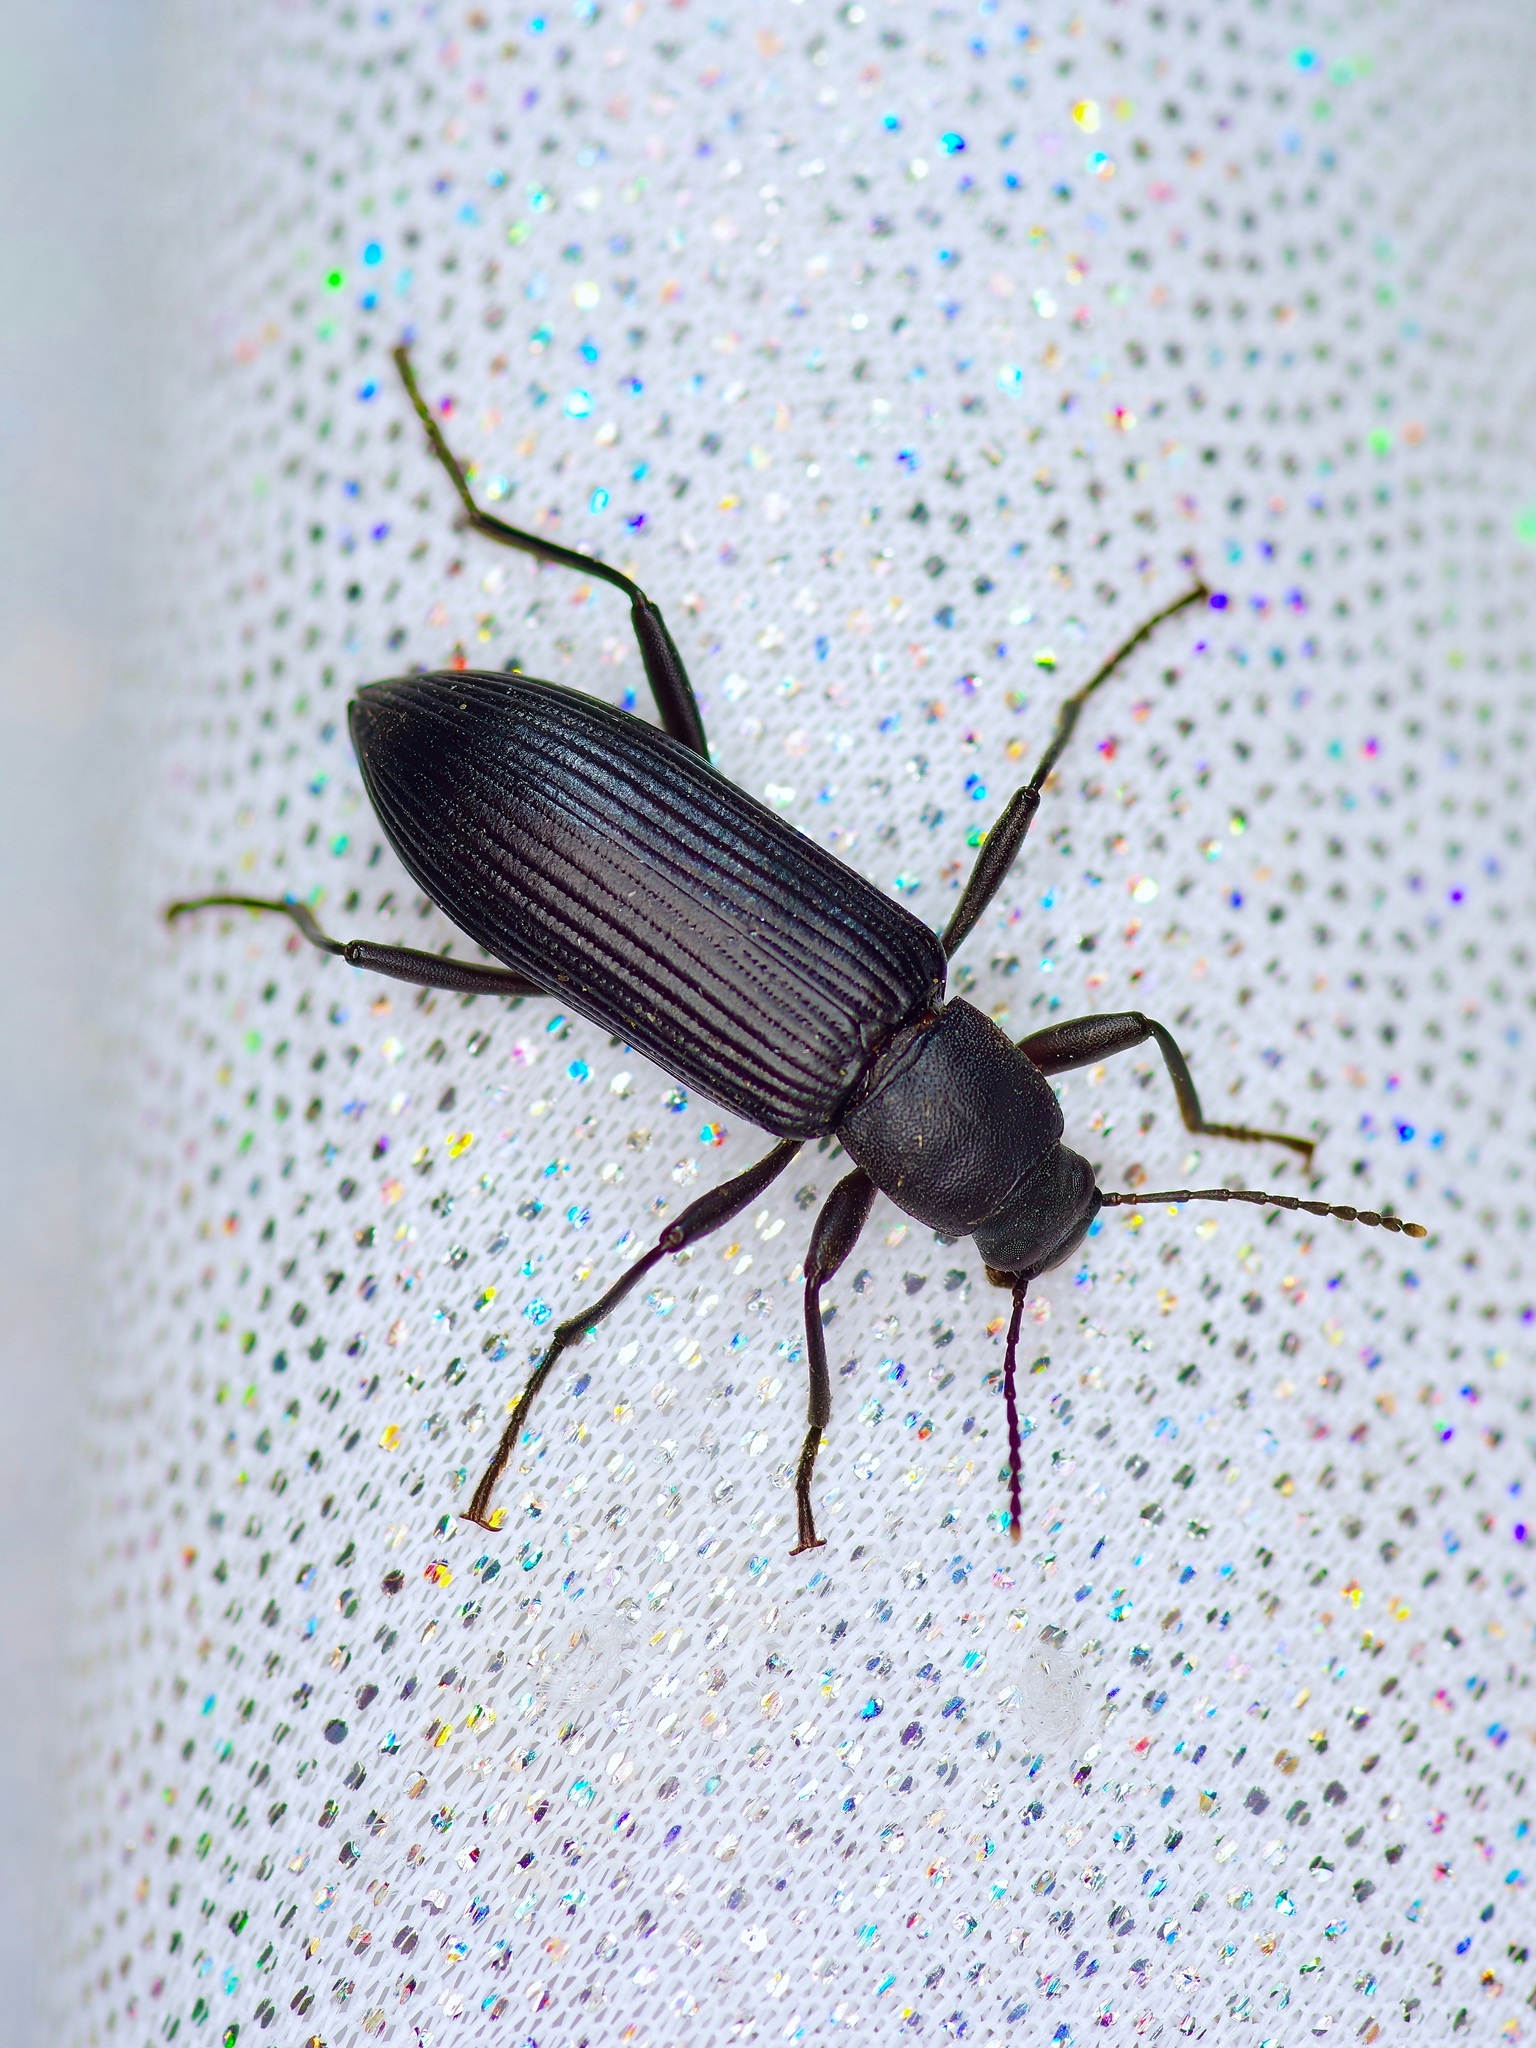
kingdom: Animalia
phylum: Arthropoda
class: Insecta
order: Coleoptera
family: Tenebrionidae
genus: Strongylium
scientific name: Strongylium tenuicolle
